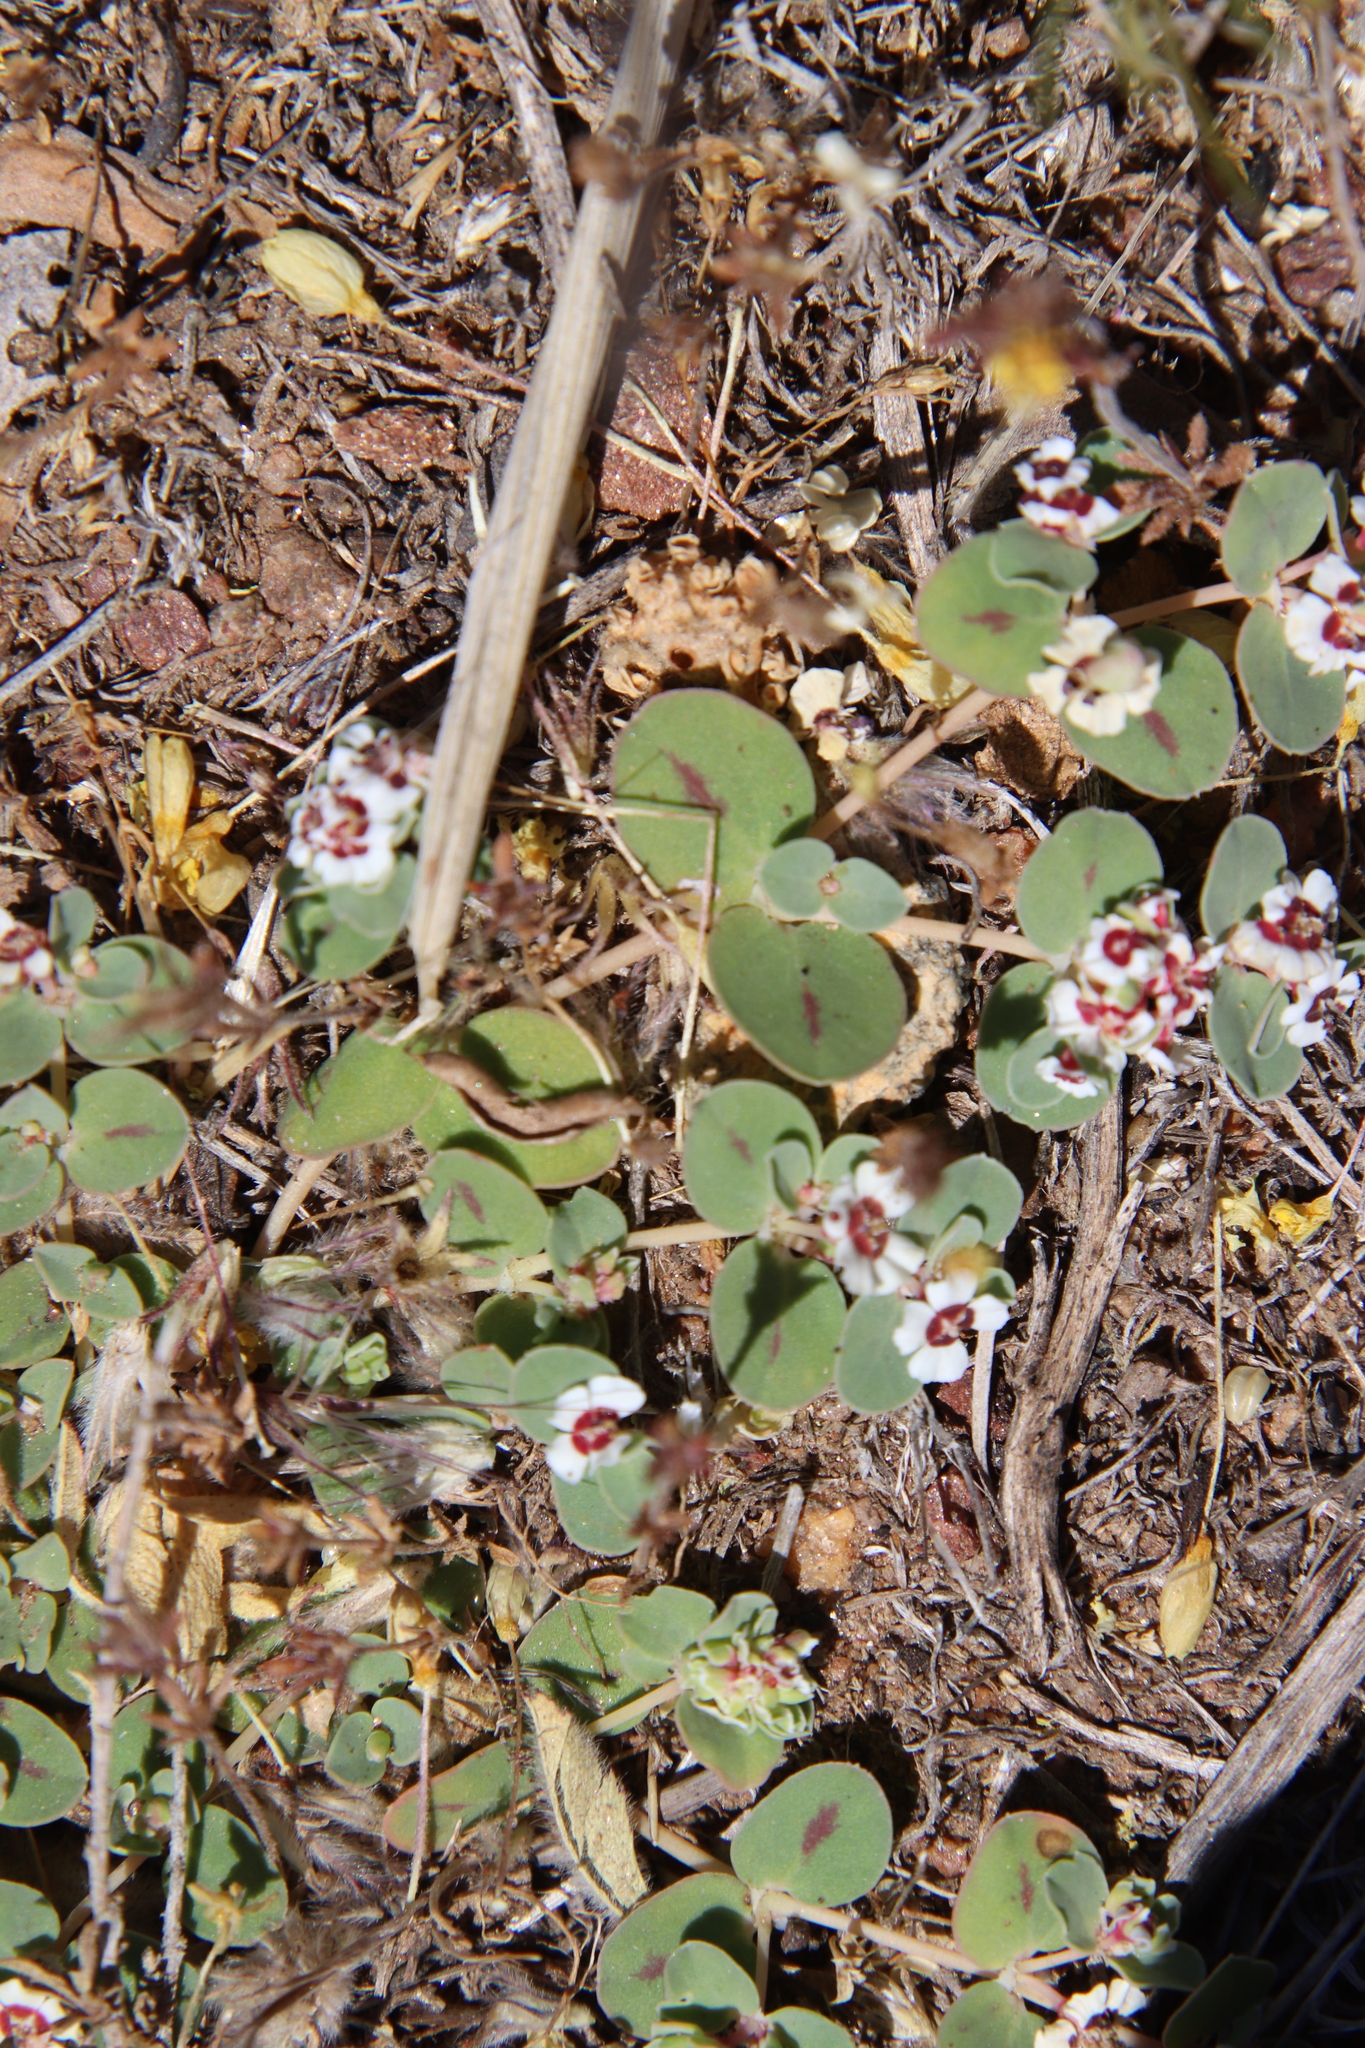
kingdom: Plantae
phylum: Tracheophyta
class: Magnoliopsida
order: Malpighiales
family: Euphorbiaceae
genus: Euphorbia
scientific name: Euphorbia albomarginata
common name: Whitemargin sandmat
